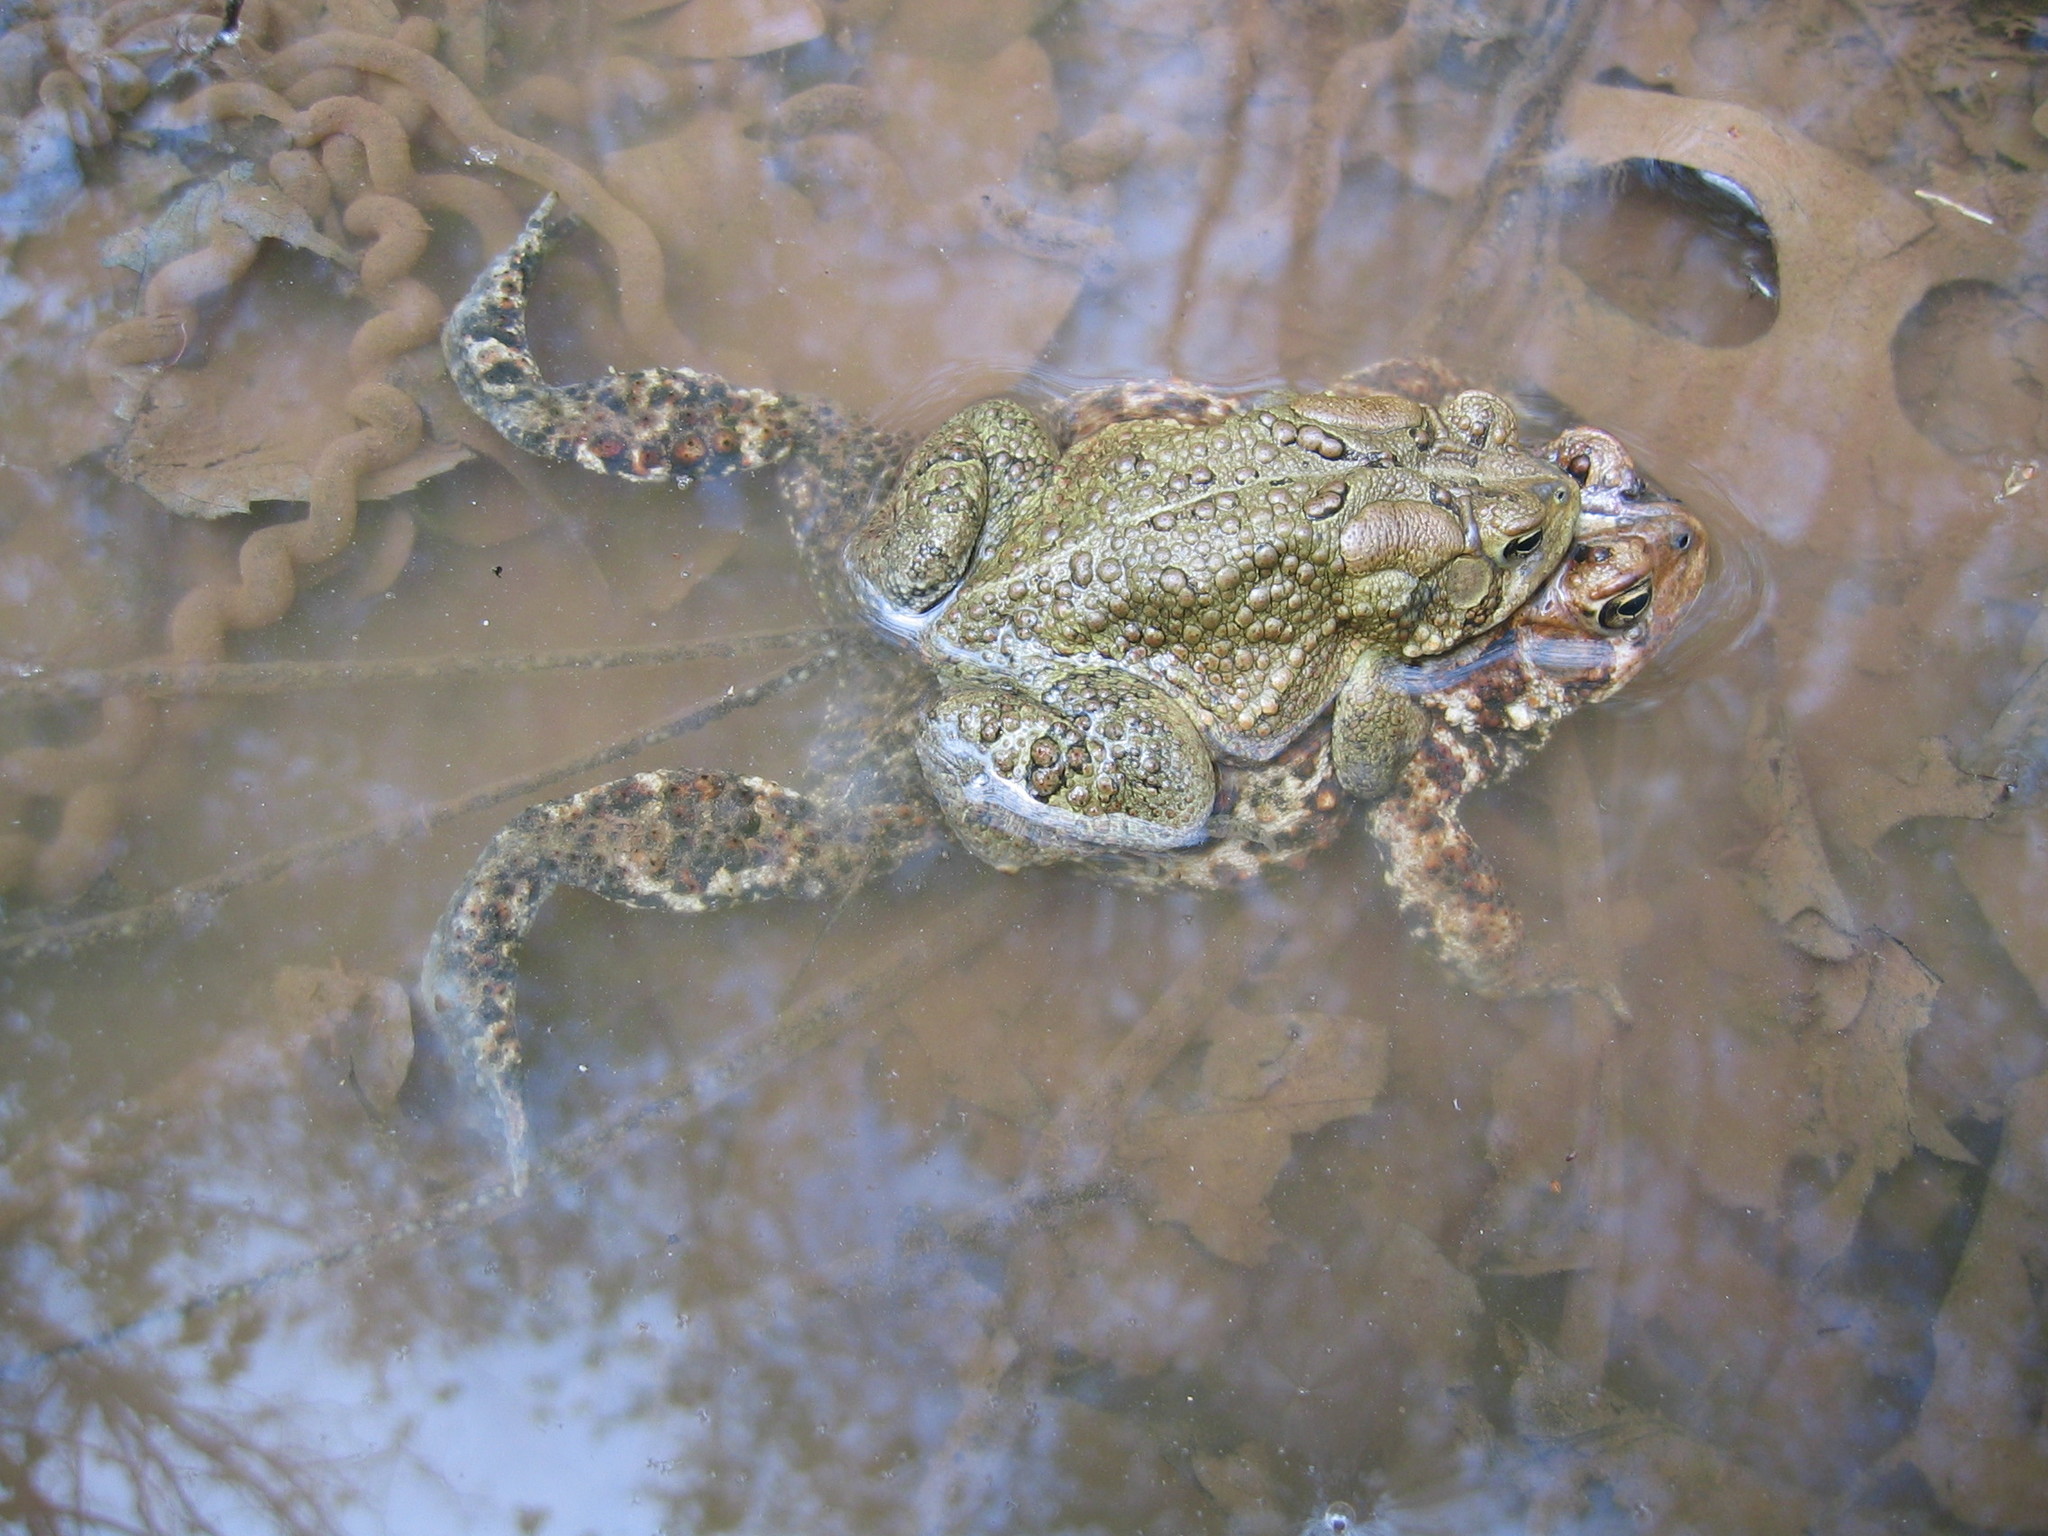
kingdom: Animalia
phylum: Chordata
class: Amphibia
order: Anura
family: Bufonidae
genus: Anaxyrus
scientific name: Anaxyrus americanus
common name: American toad
